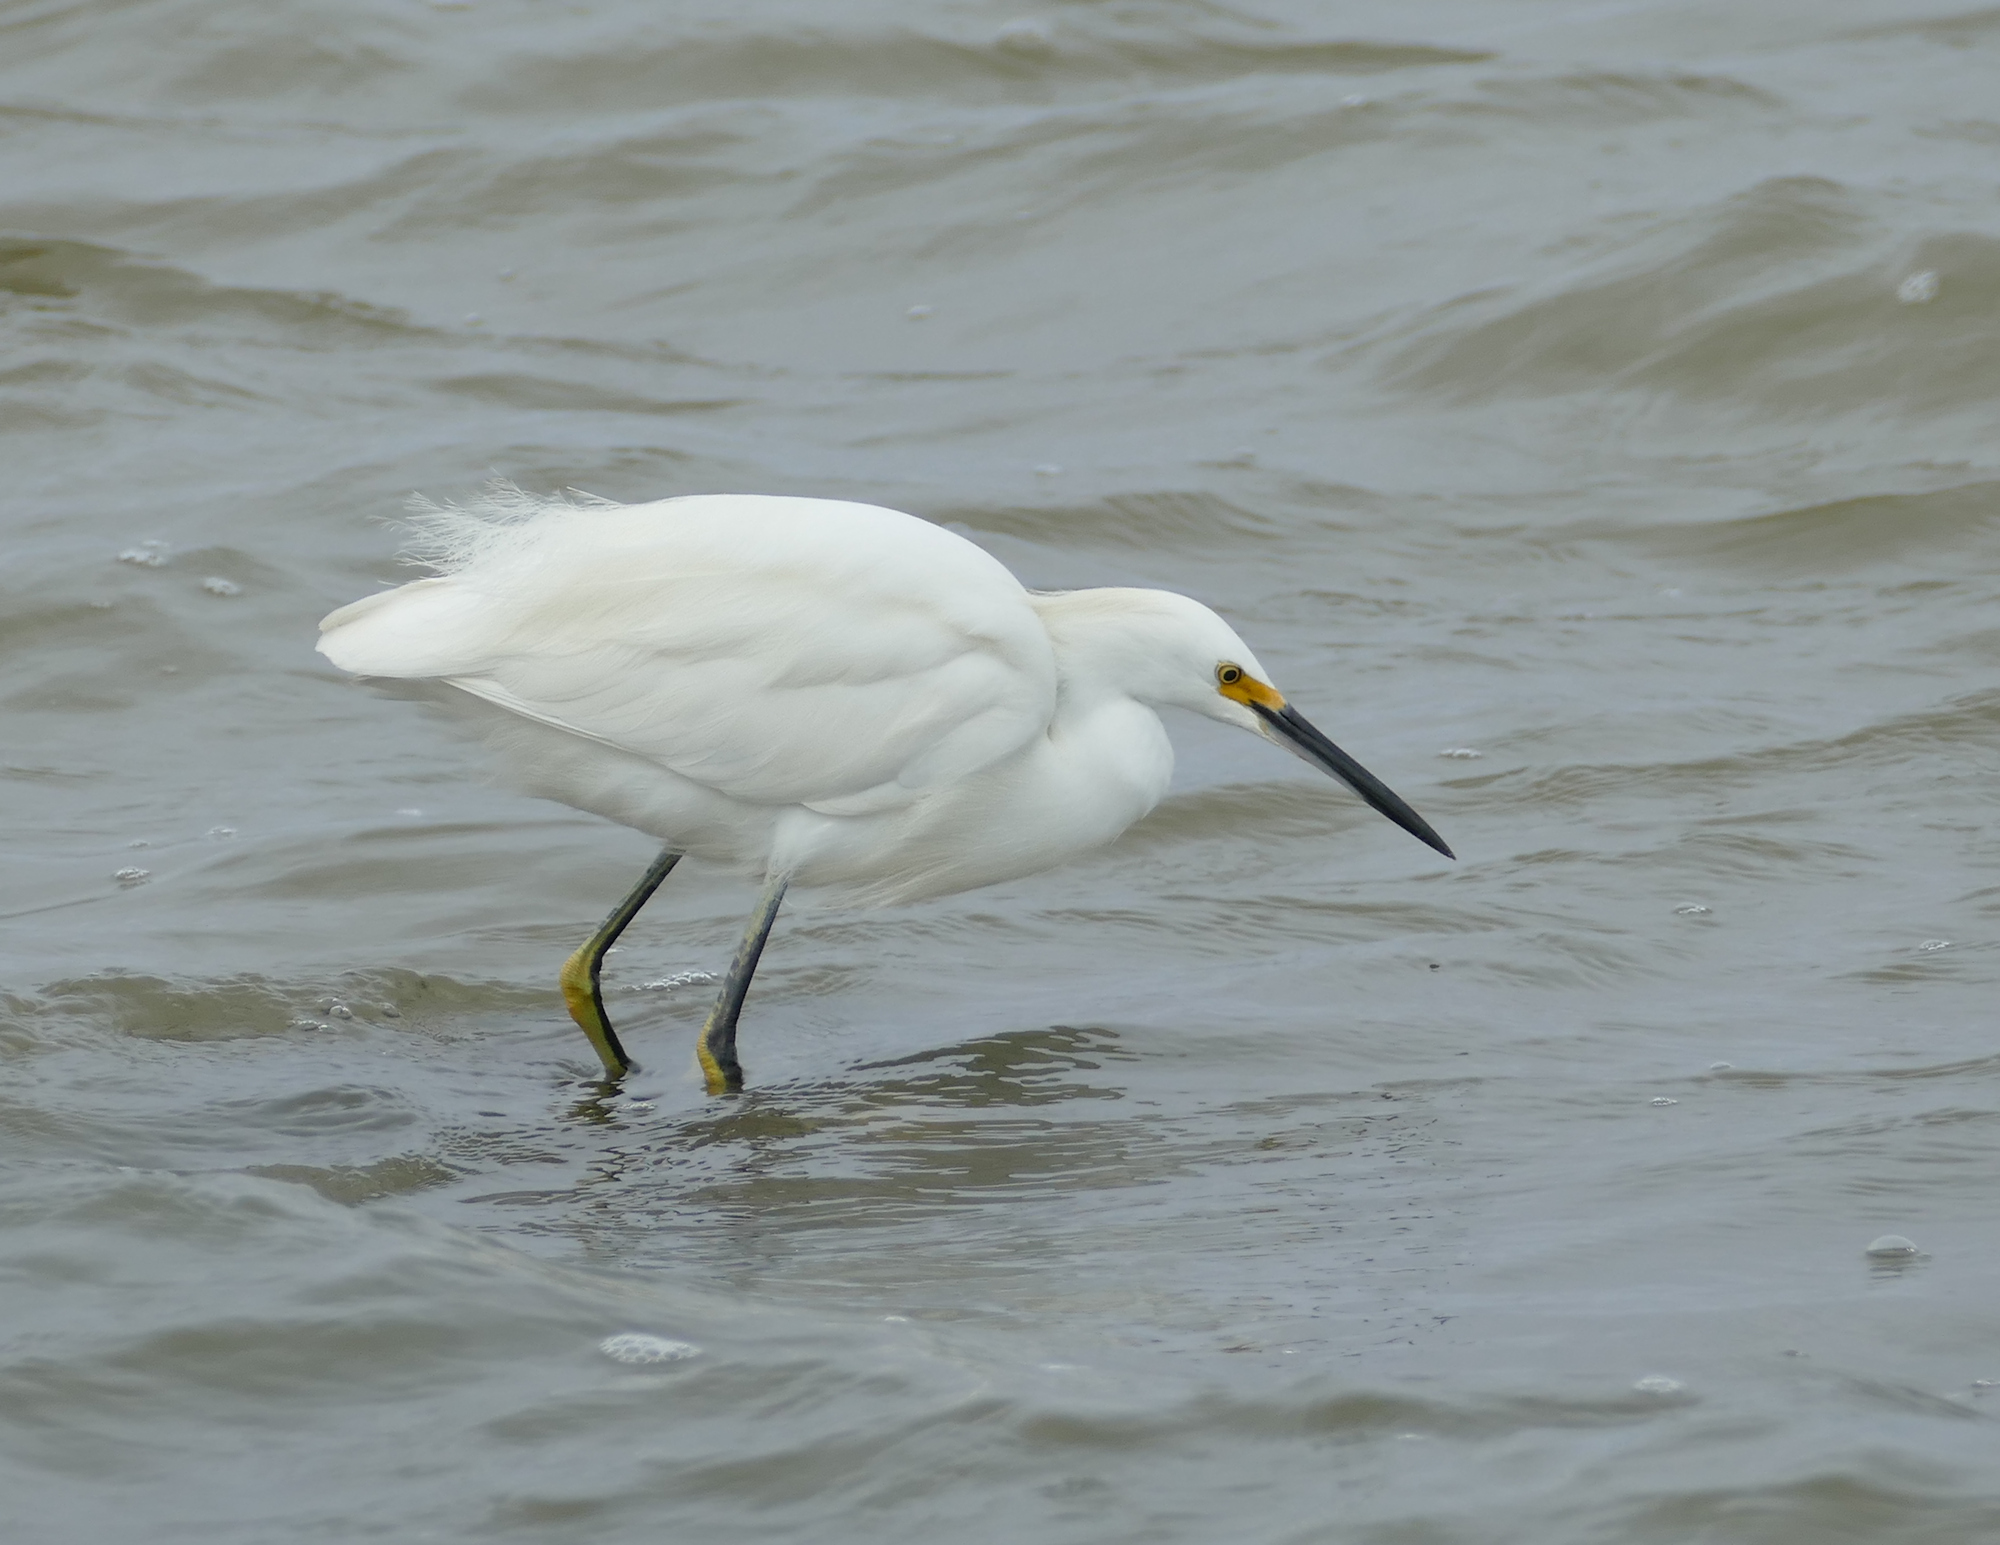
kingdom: Animalia
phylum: Chordata
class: Aves
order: Pelecaniformes
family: Ardeidae
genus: Egretta
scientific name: Egretta thula
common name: Snowy egret
